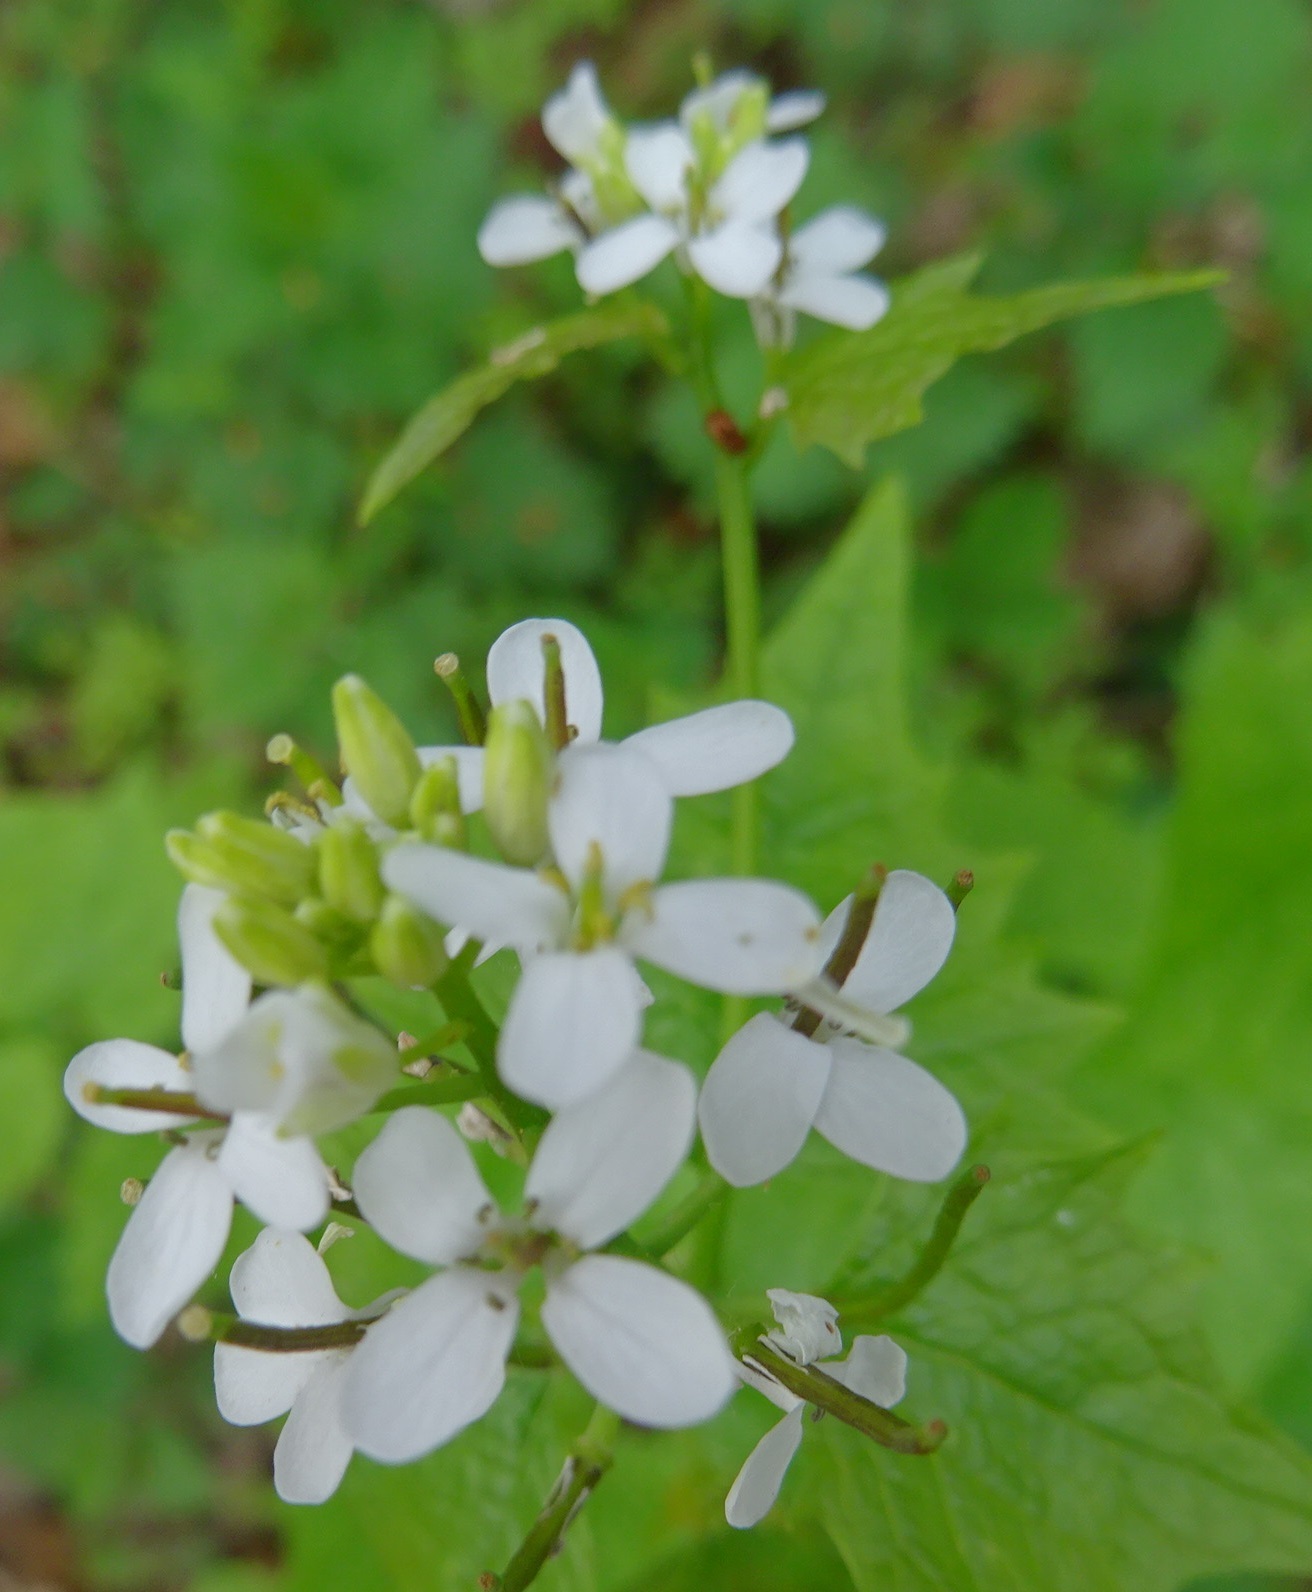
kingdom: Plantae
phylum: Tracheophyta
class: Magnoliopsida
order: Brassicales
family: Brassicaceae
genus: Alliaria
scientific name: Alliaria petiolata
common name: Garlic mustard
